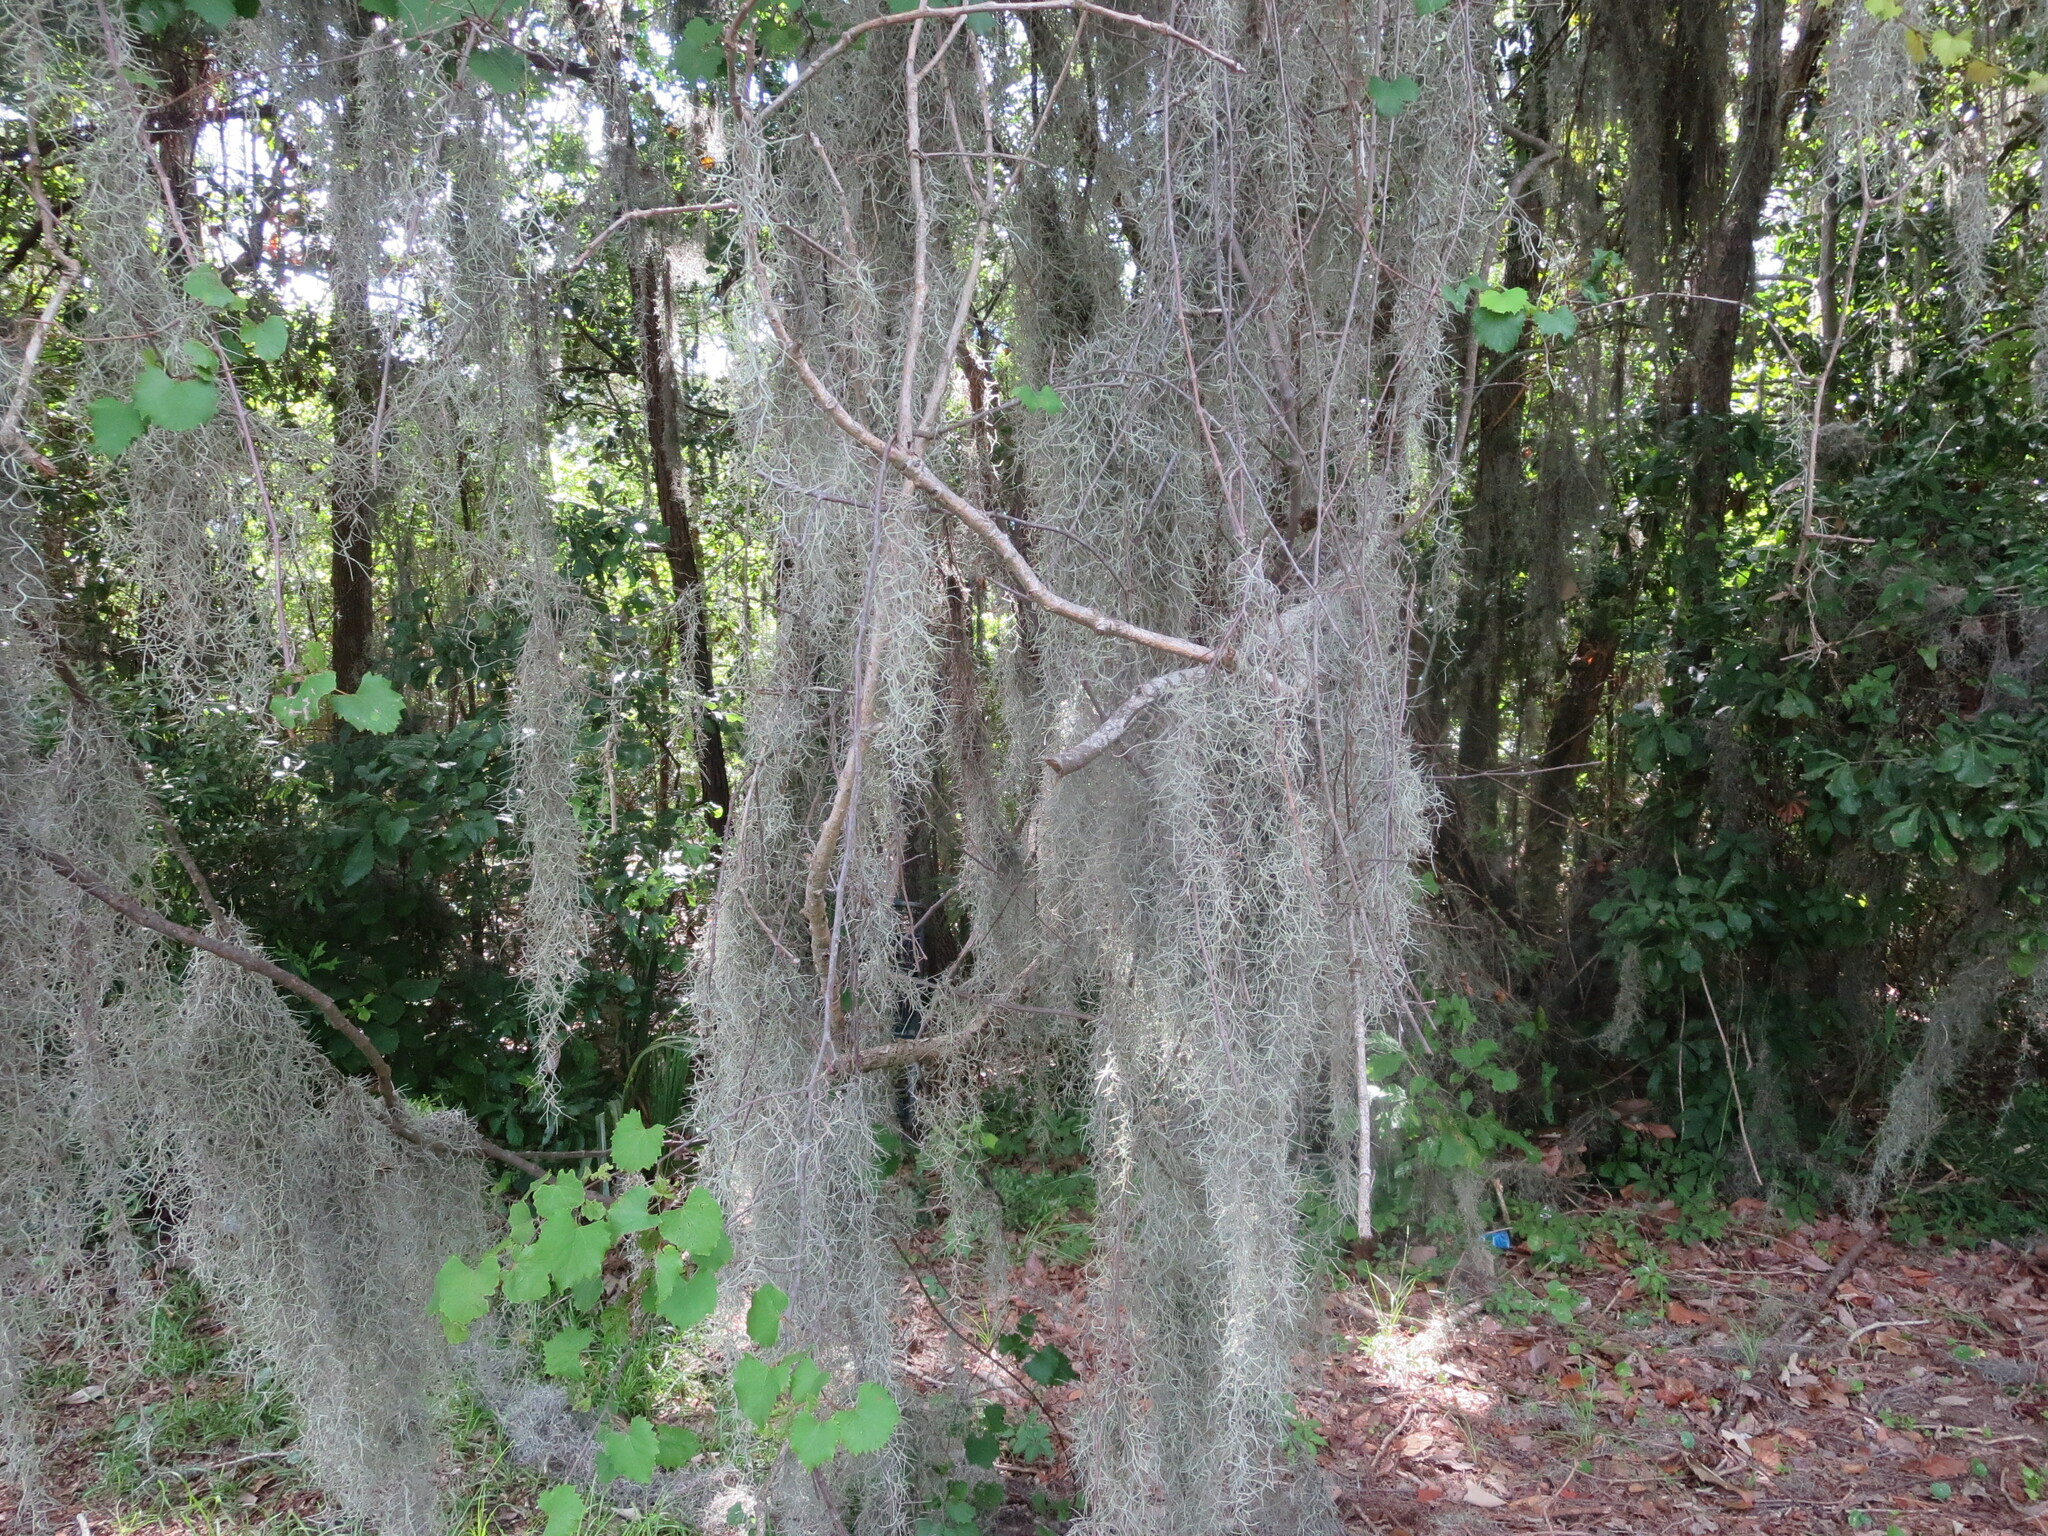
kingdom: Plantae
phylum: Tracheophyta
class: Liliopsida
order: Poales
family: Bromeliaceae
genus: Tillandsia
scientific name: Tillandsia usneoides
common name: Spanish moss
